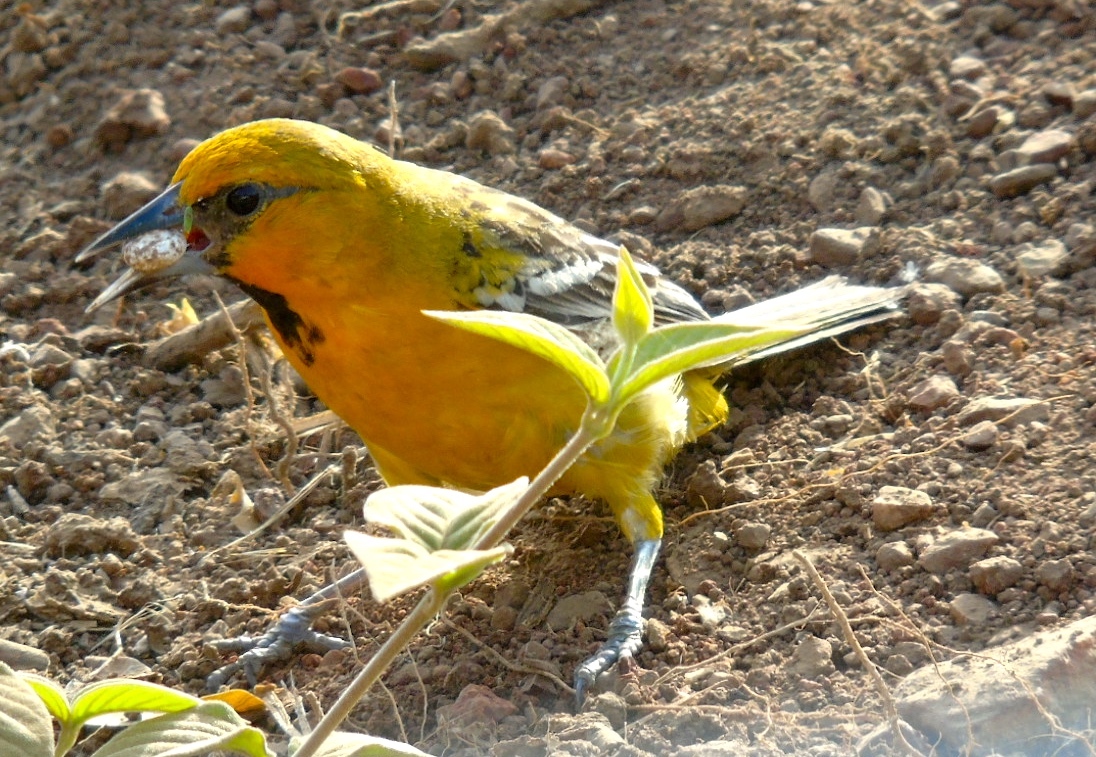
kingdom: Animalia
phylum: Chordata
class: Aves
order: Passeriformes
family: Icteridae
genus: Icterus
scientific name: Icterus pustulatus
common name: Streak-backed oriole
